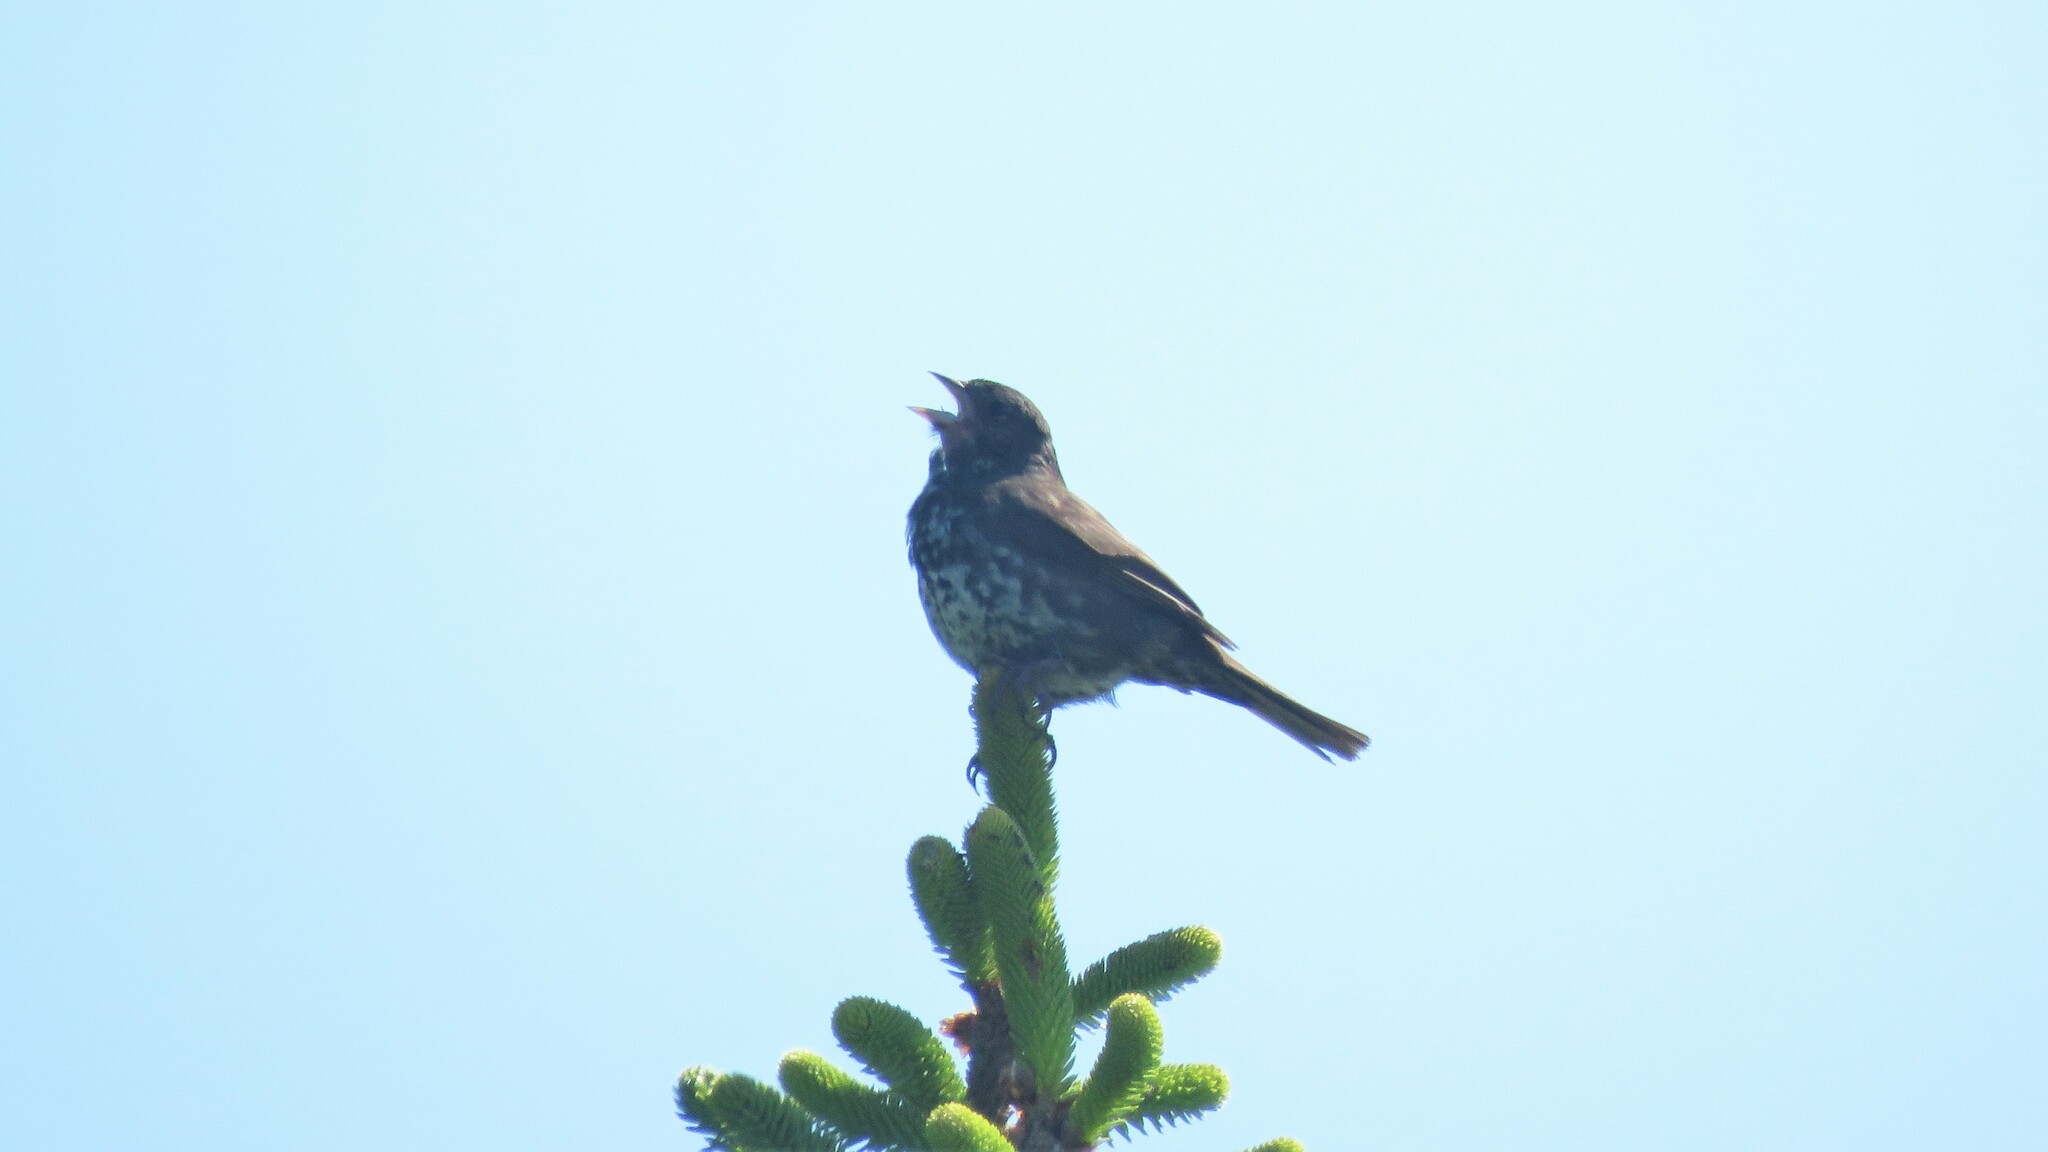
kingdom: Animalia
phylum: Chordata
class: Aves
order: Passeriformes
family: Passerellidae
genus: Passerella
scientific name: Passerella iliaca
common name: Fox sparrow
